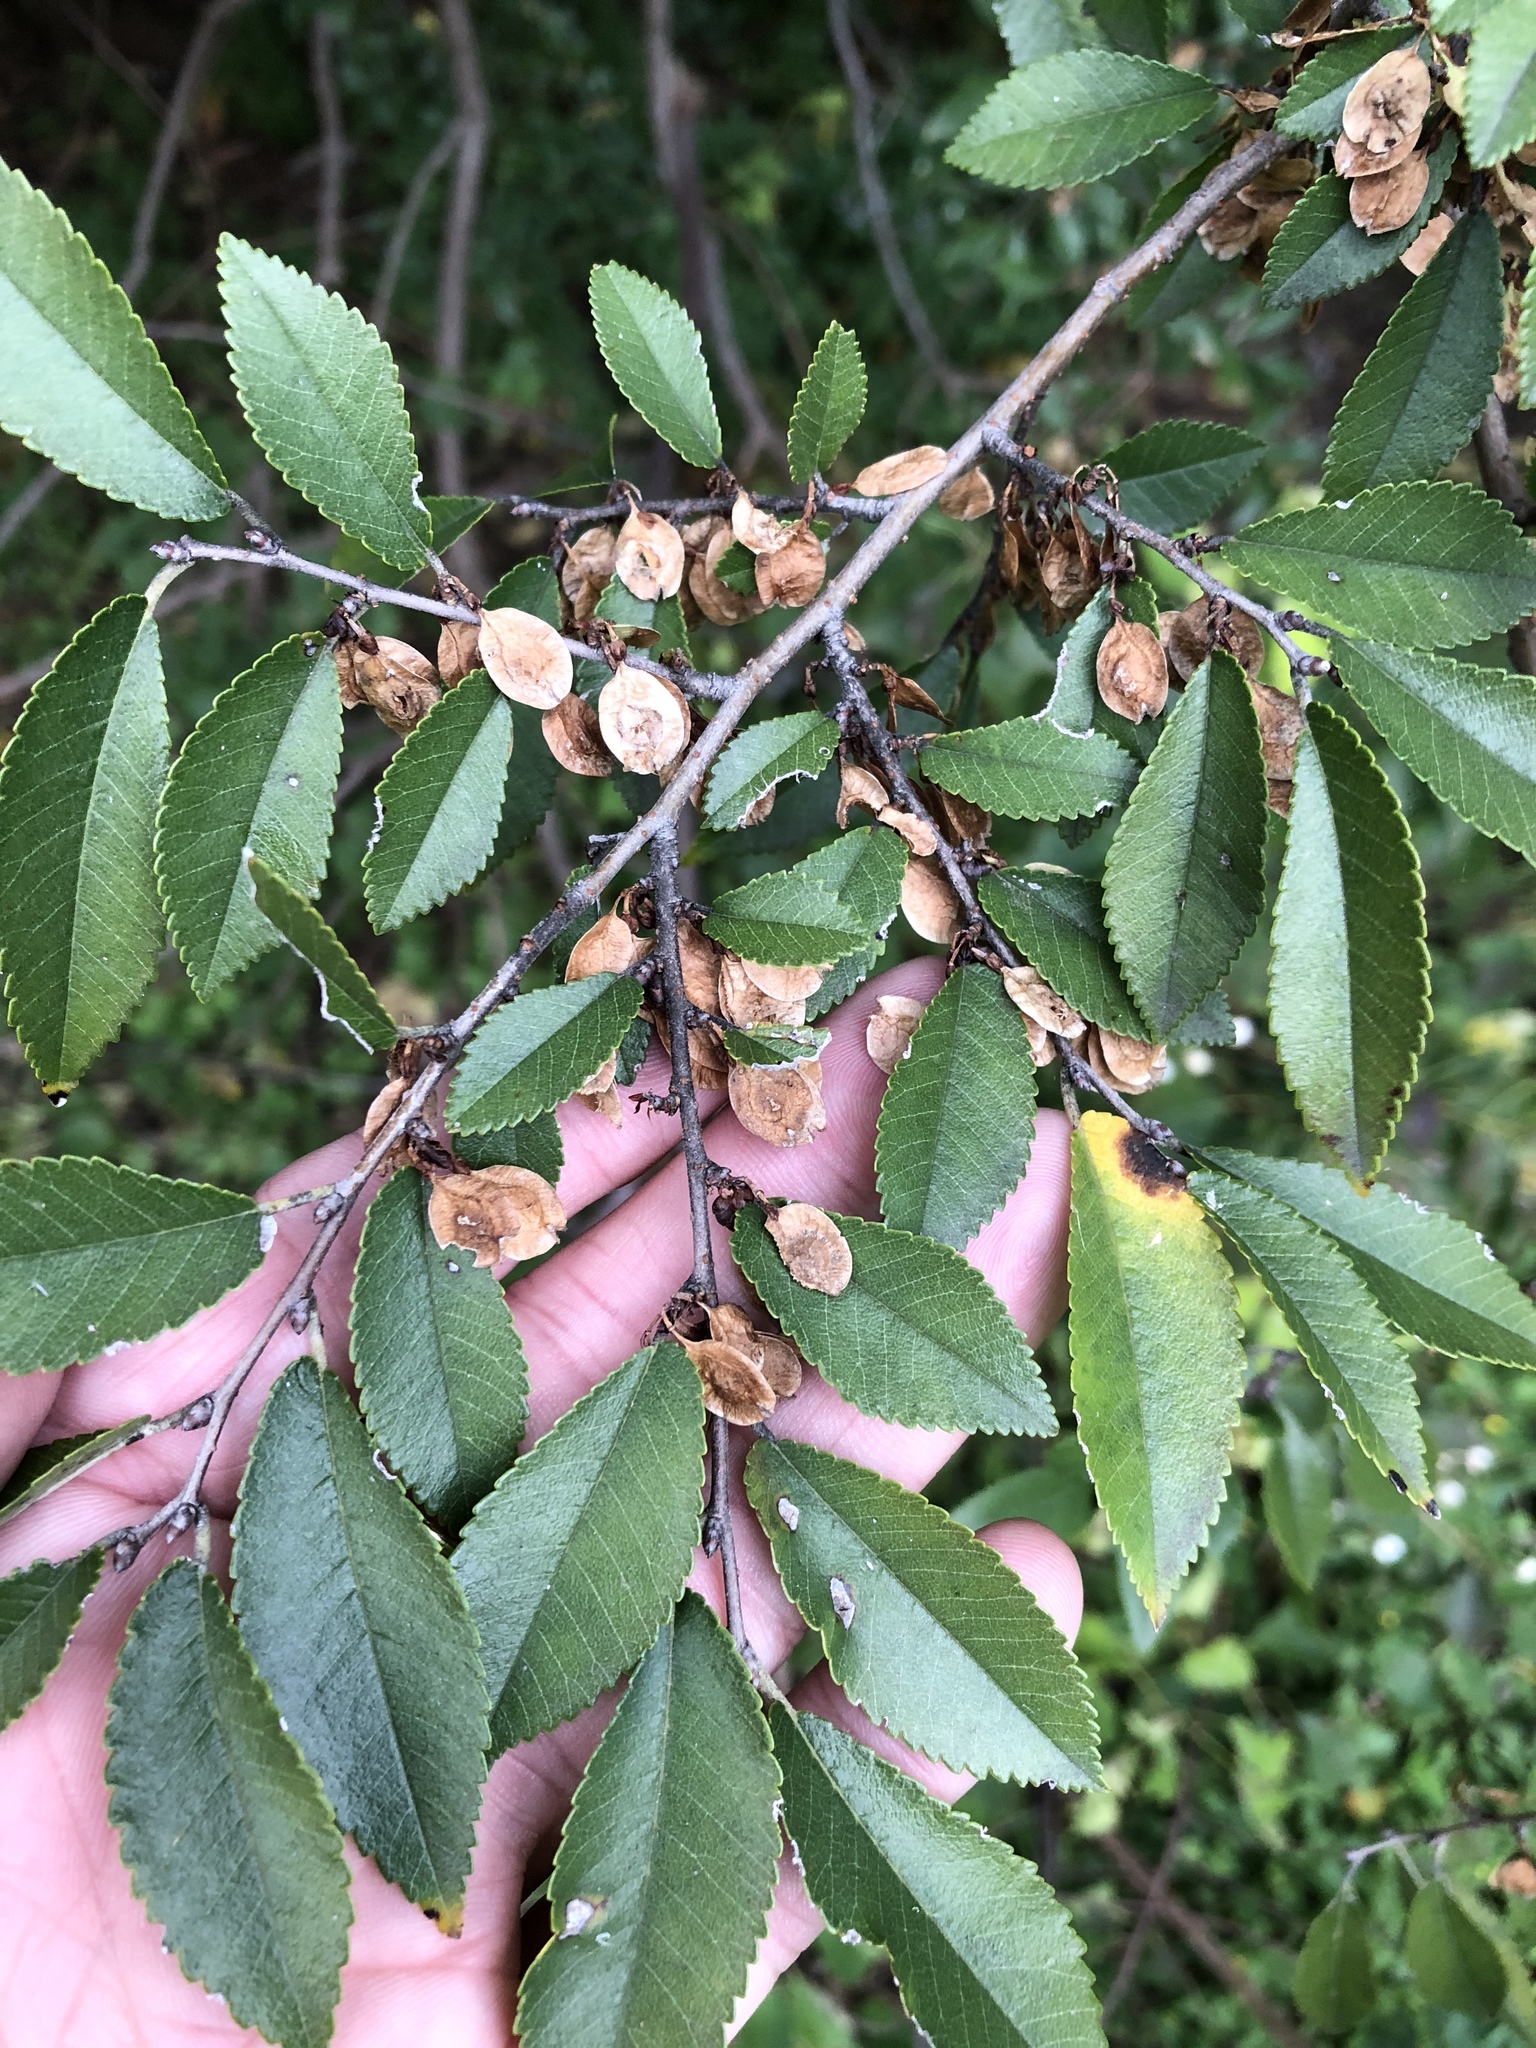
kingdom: Plantae
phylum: Tracheophyta
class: Magnoliopsida
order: Rosales
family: Ulmaceae
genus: Ulmus
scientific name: Ulmus parvifolia
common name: Chinese elm
